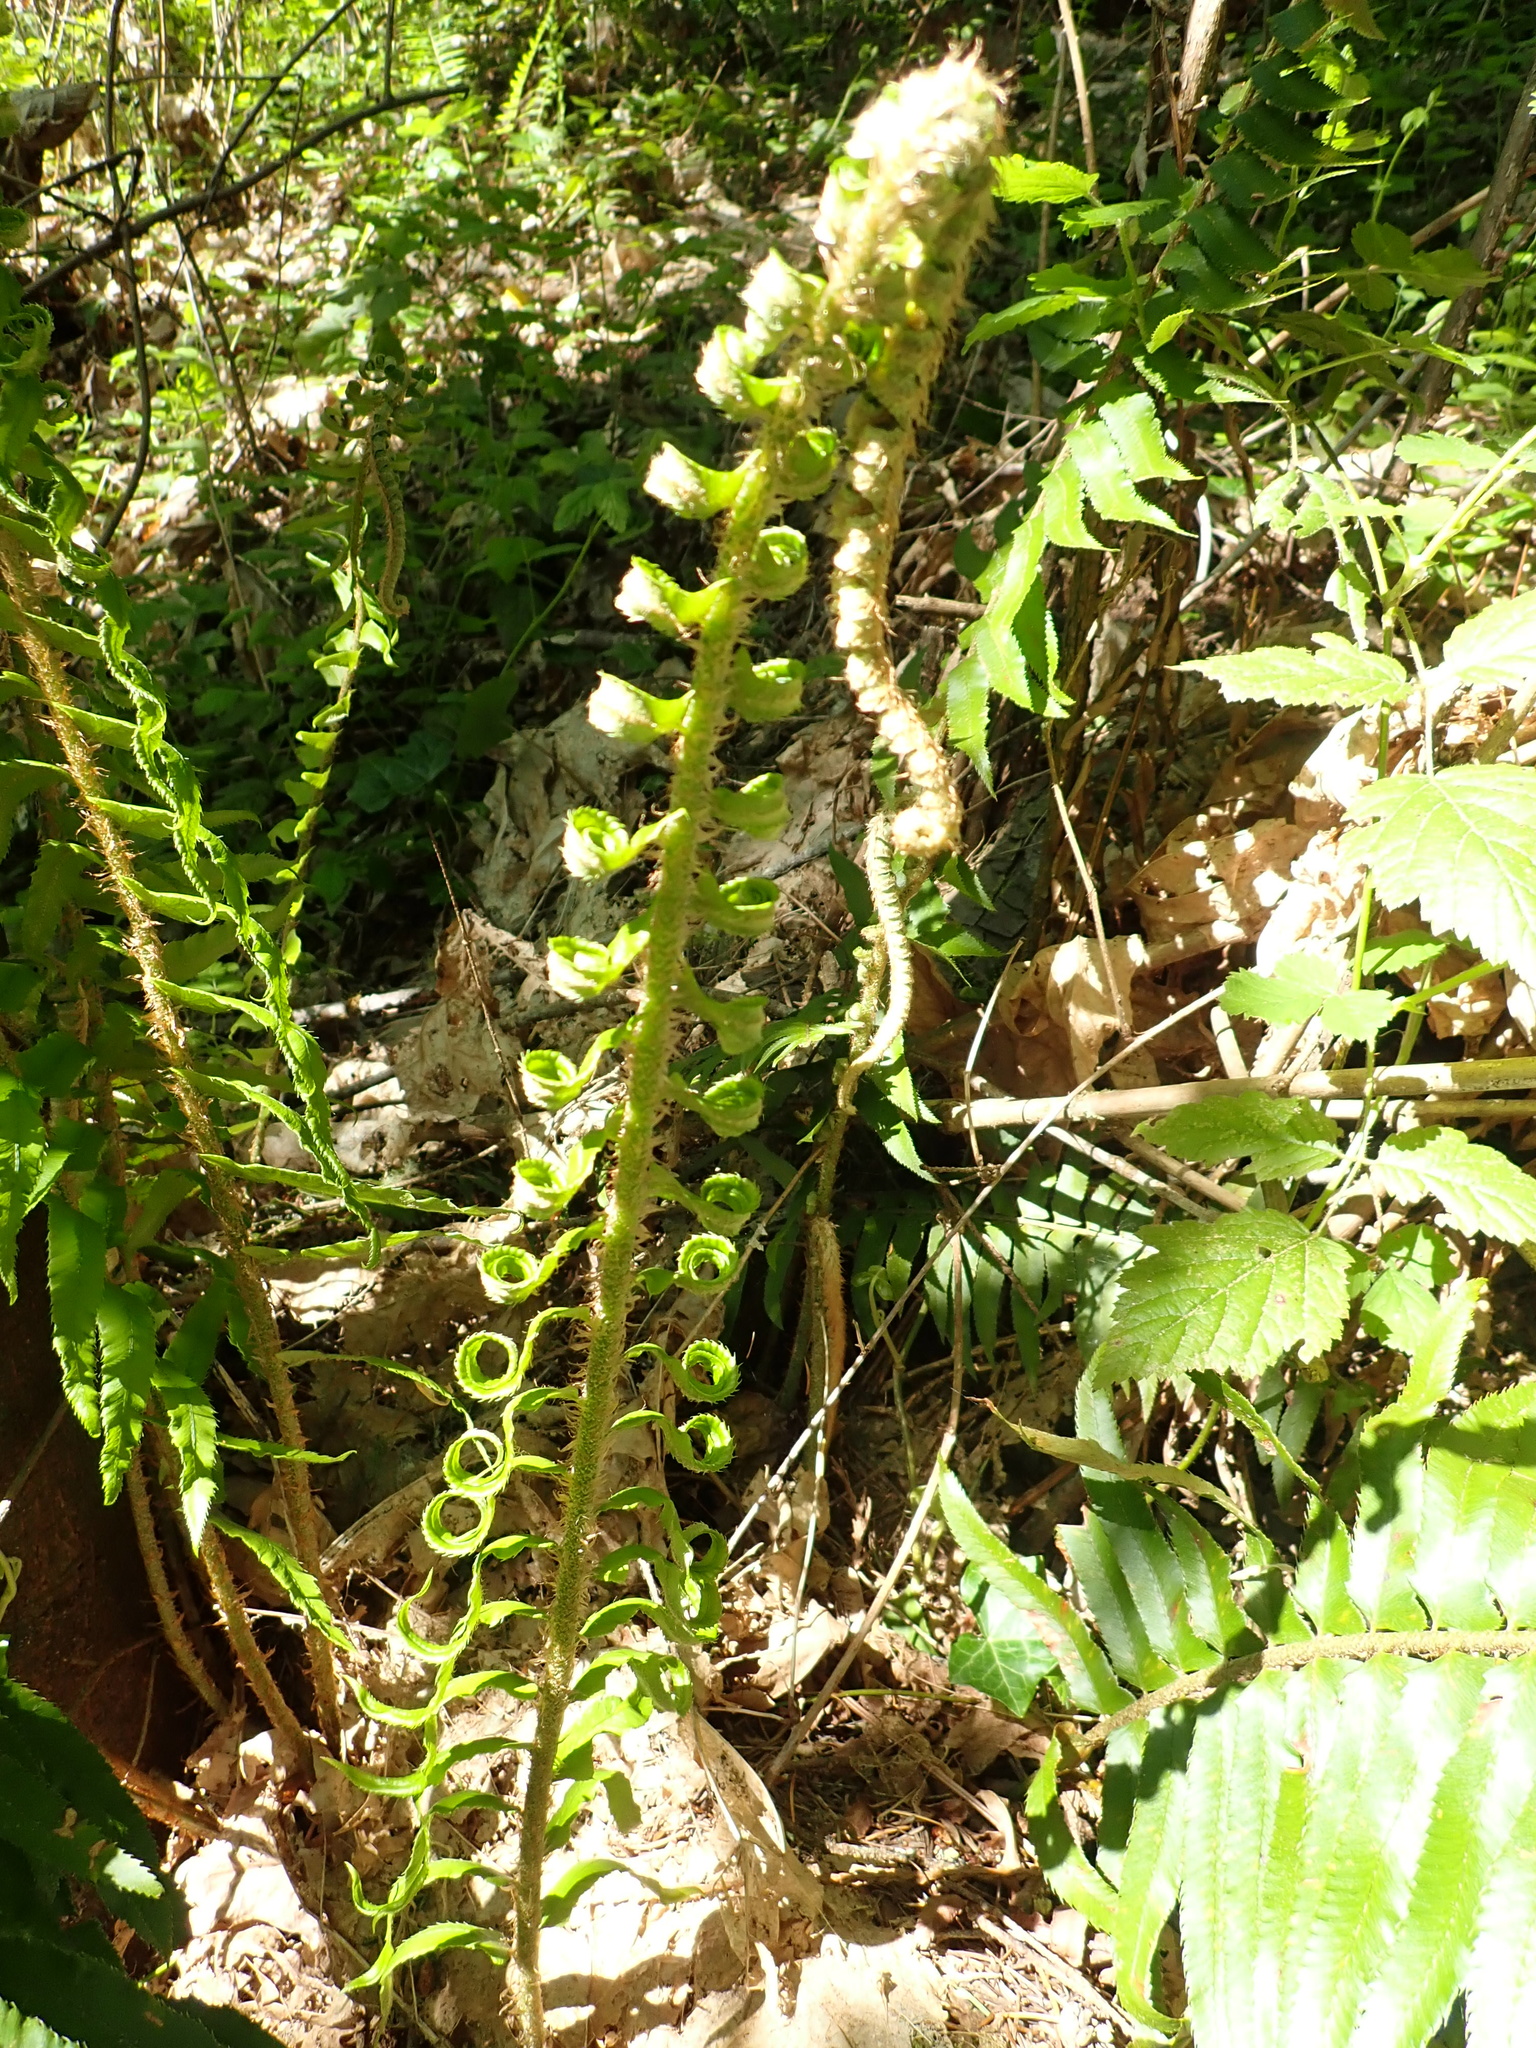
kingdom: Plantae
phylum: Tracheophyta
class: Polypodiopsida
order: Polypodiales
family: Dryopteridaceae
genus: Polystichum
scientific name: Polystichum munitum
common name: Western sword-fern
